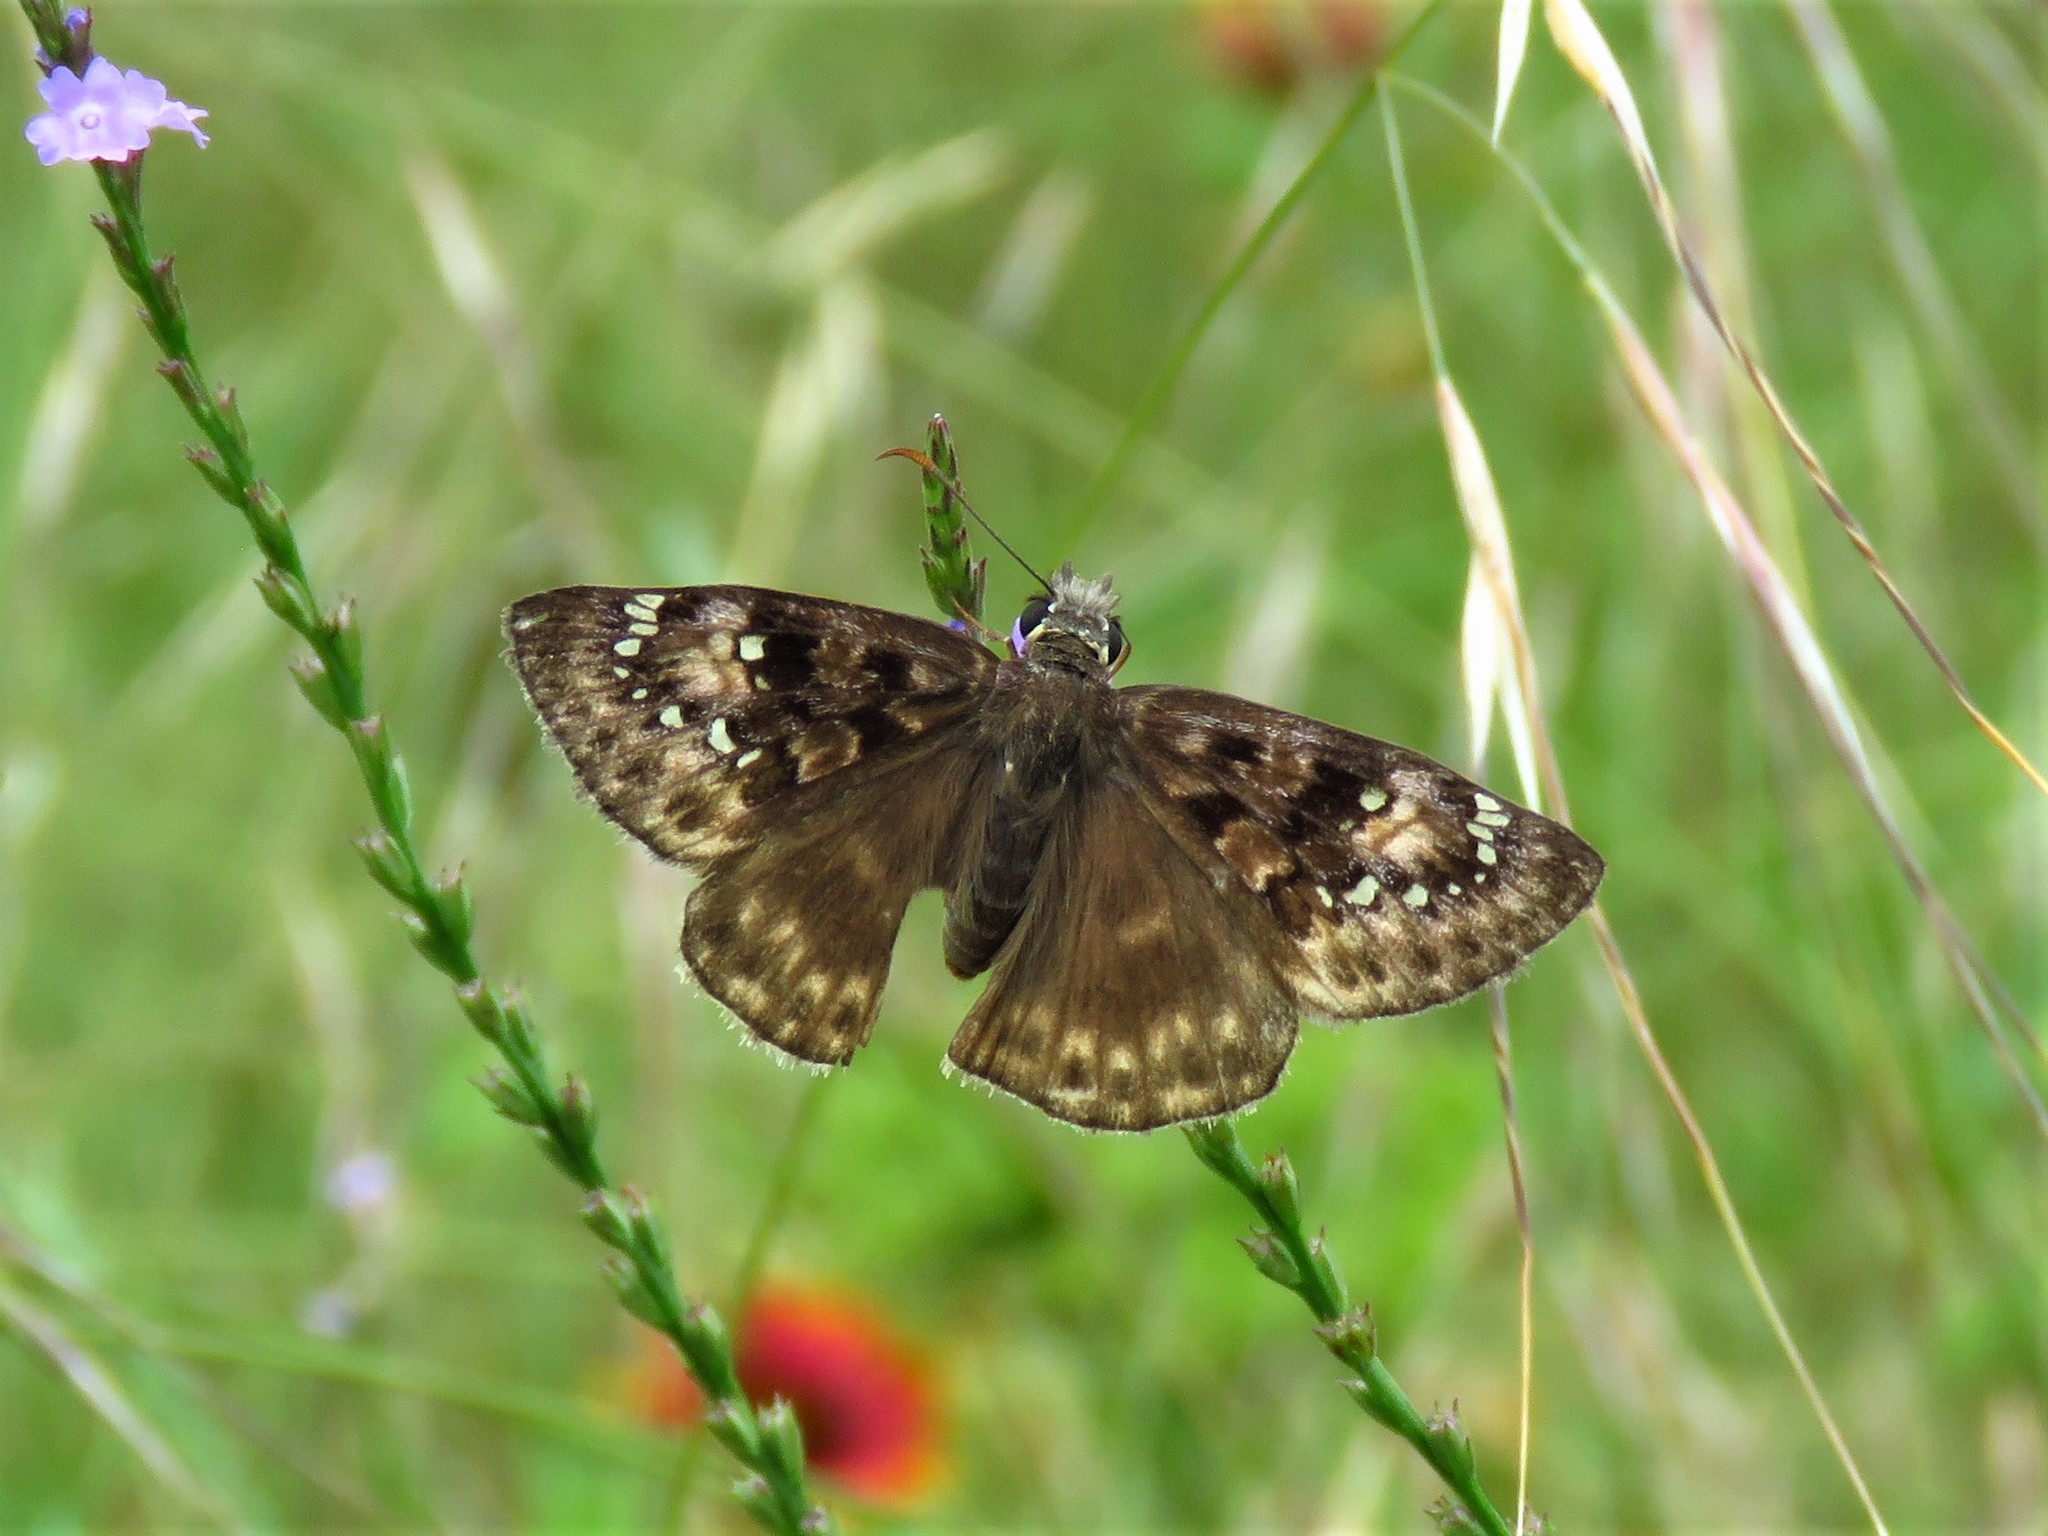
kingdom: Animalia
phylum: Arthropoda
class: Insecta
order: Lepidoptera
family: Hesperiidae
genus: Erynnis
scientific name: Erynnis horatius
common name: Horace's duskywing
